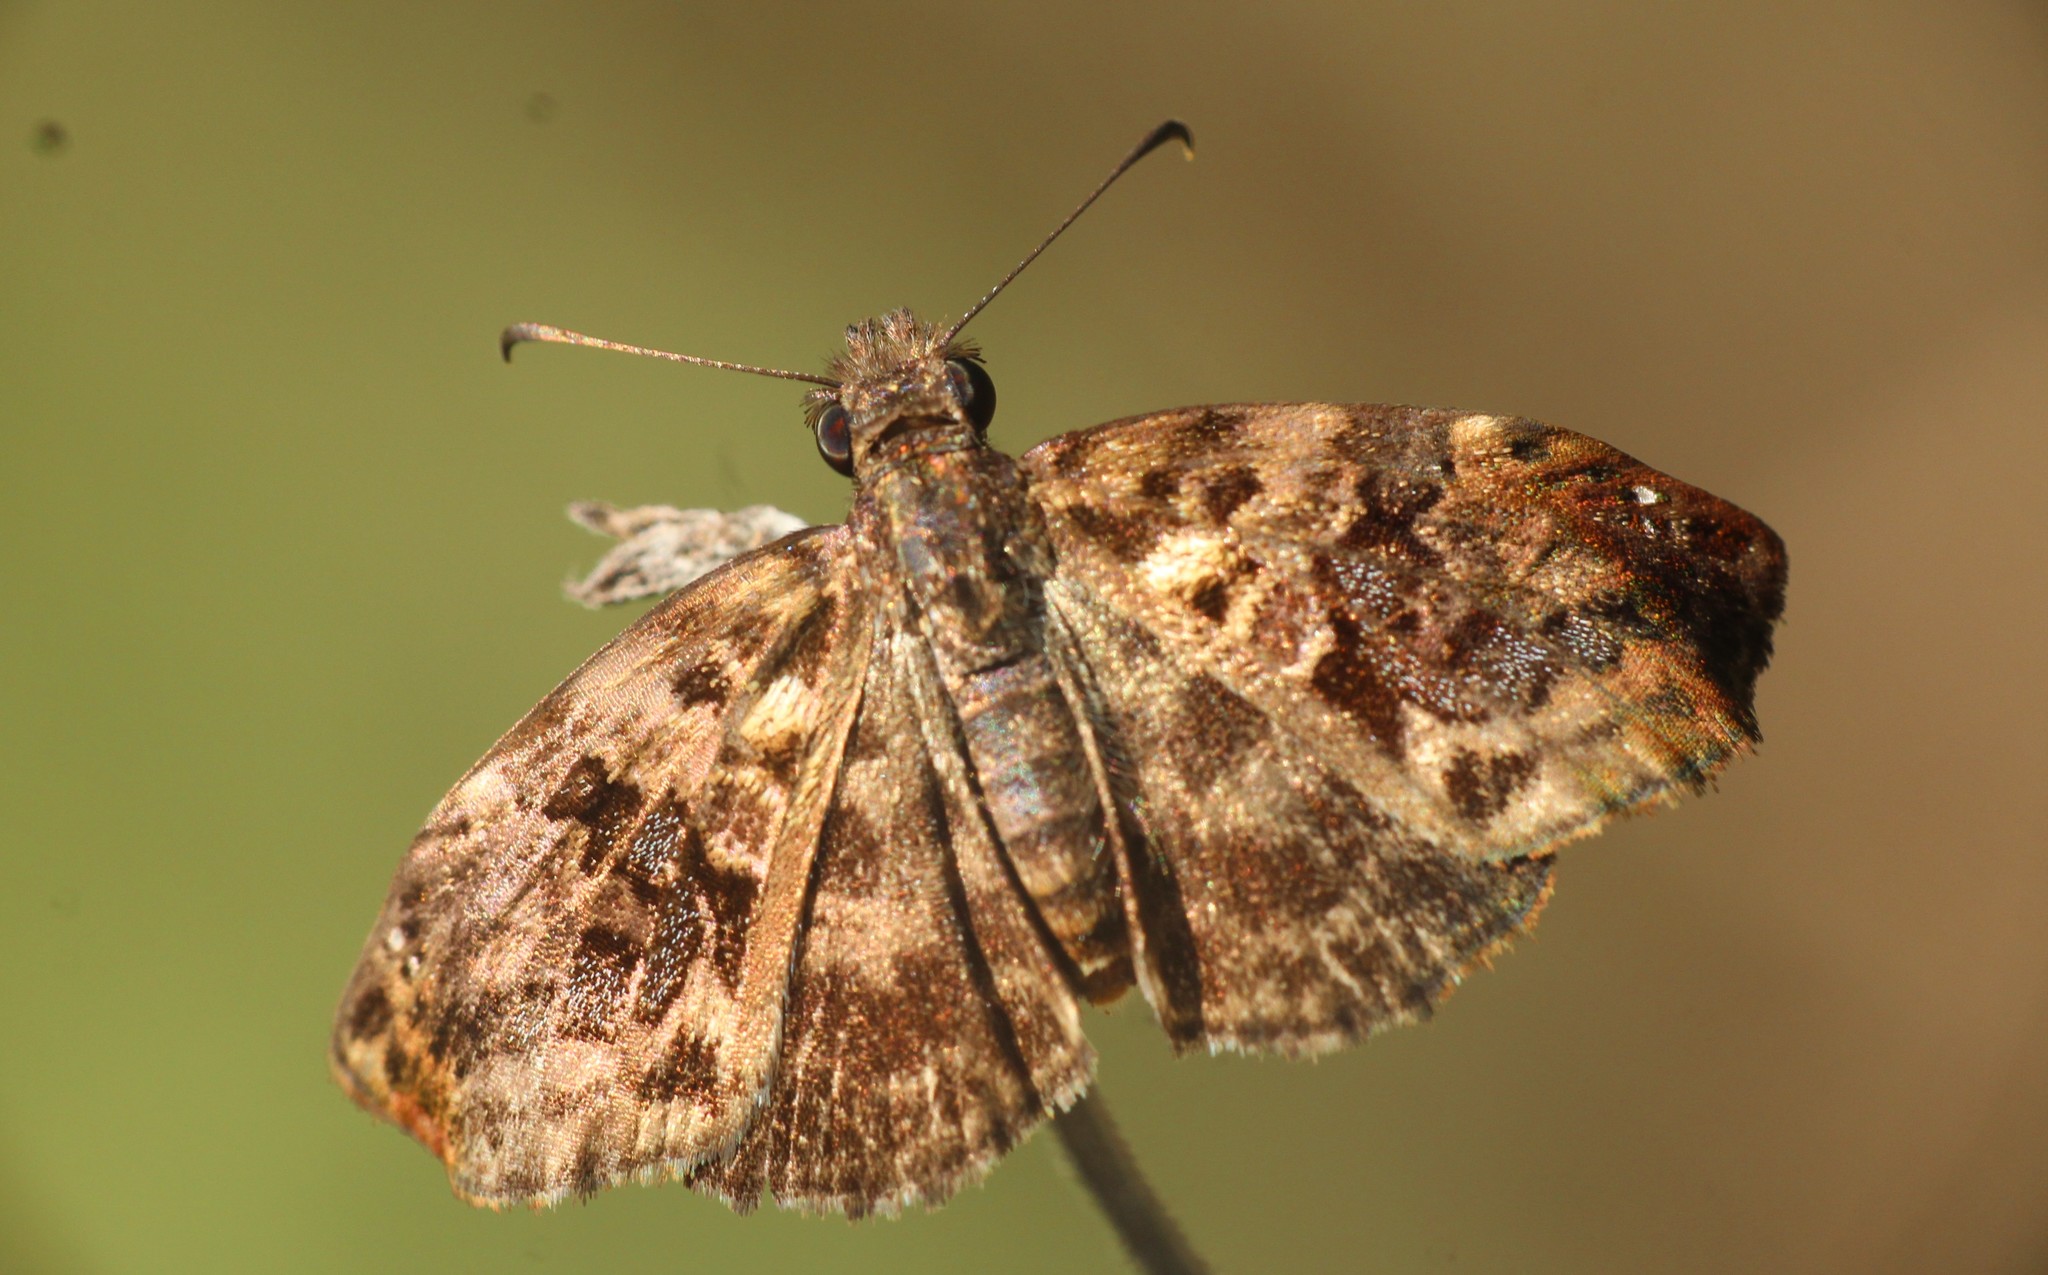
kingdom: Animalia
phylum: Arthropoda
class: Insecta
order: Lepidoptera
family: Hesperiidae
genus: Gorgythion
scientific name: Gorgythion begga
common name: Variegated skipper
